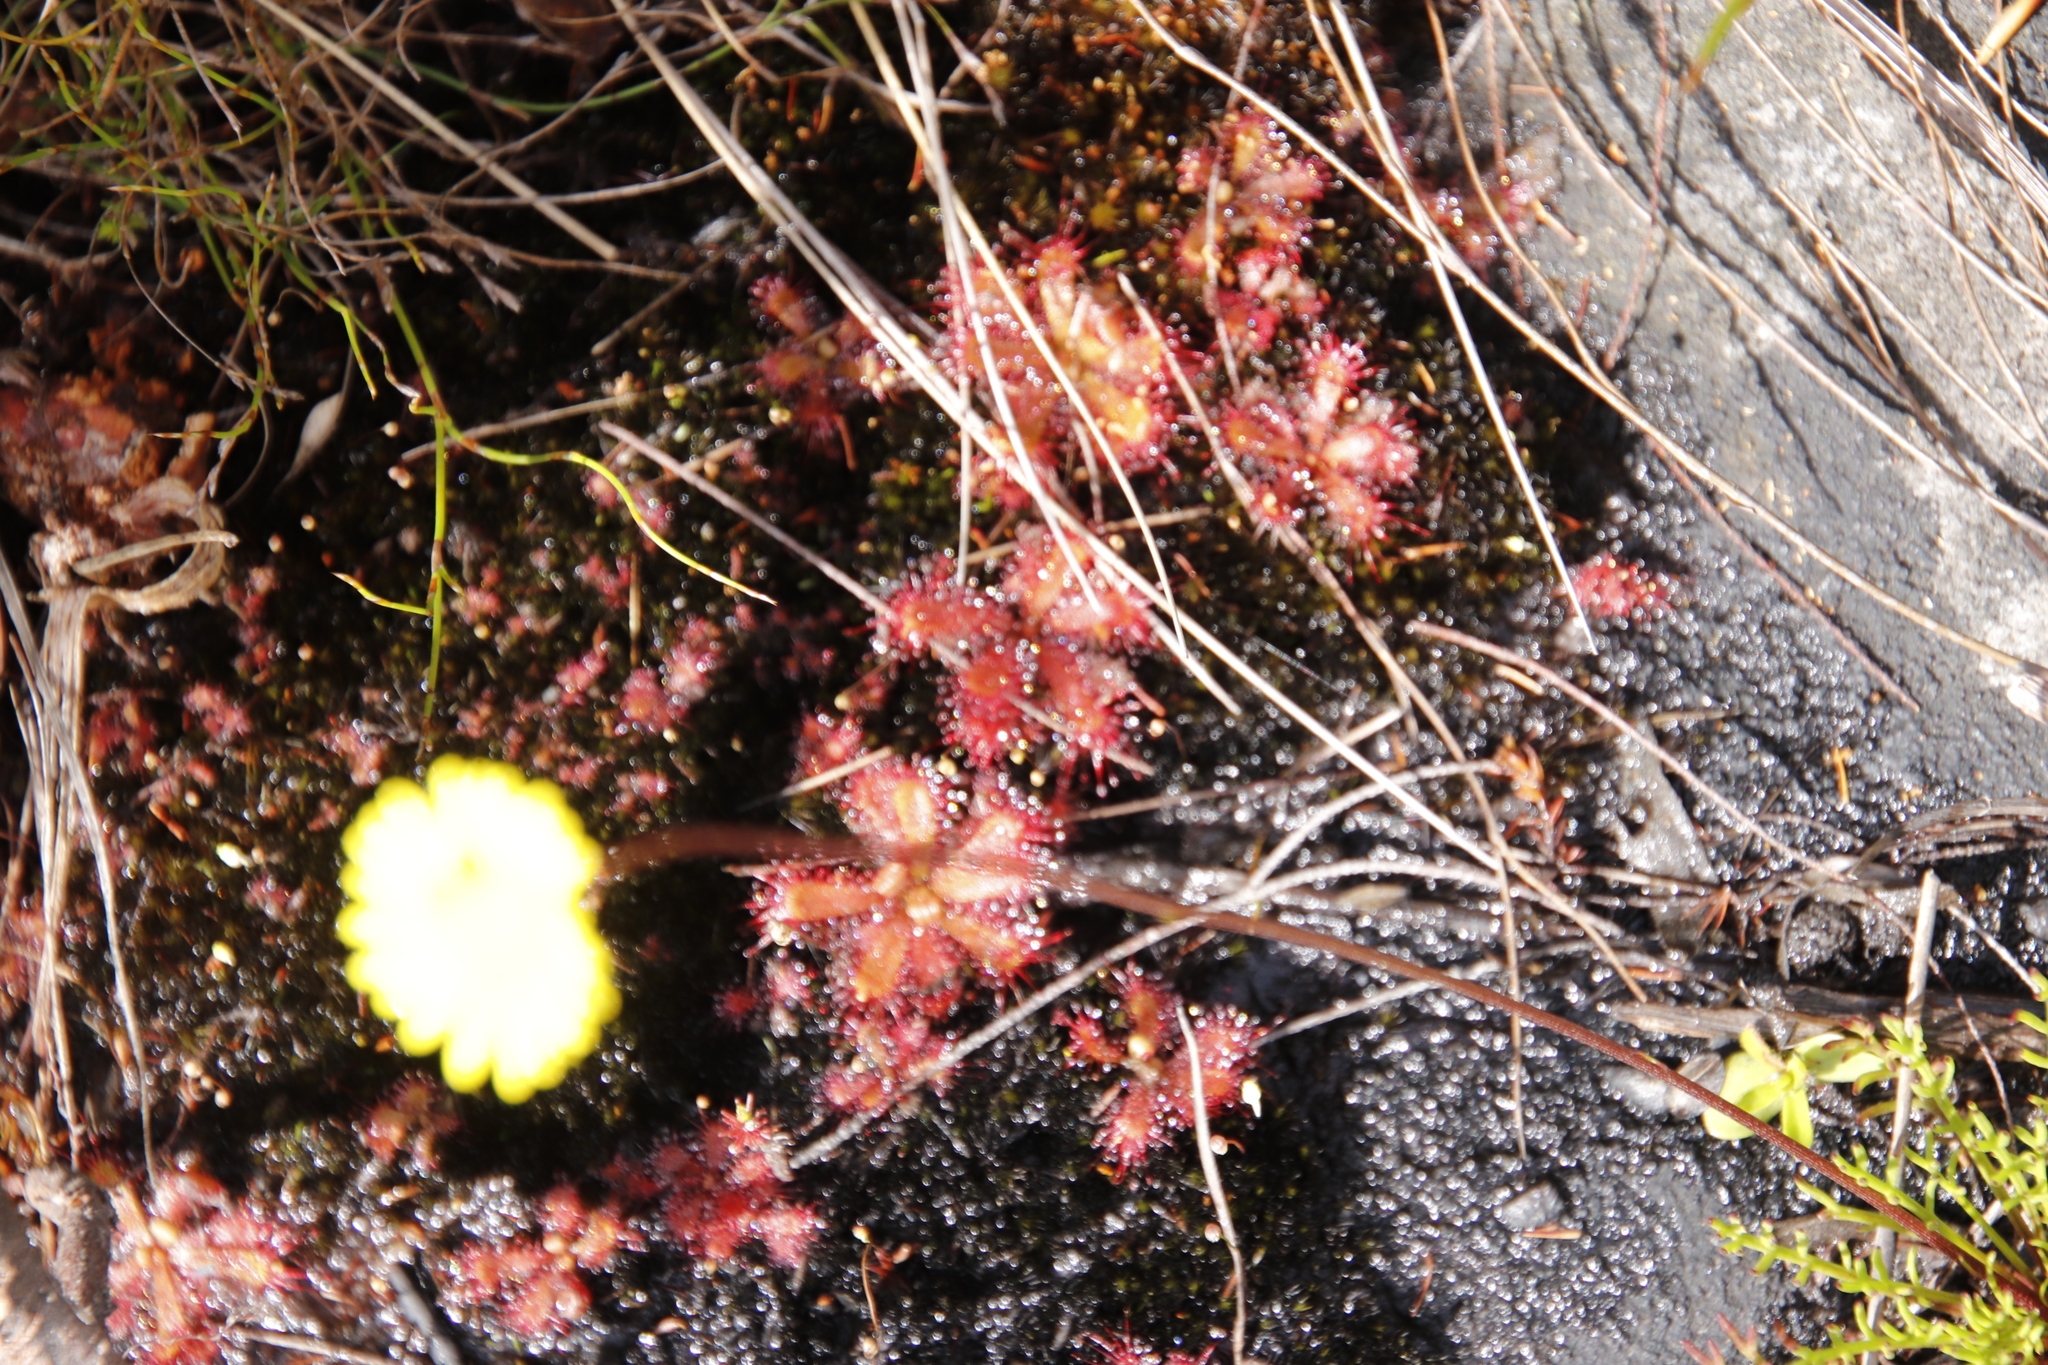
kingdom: Plantae
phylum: Tracheophyta
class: Magnoliopsida
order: Caryophyllales
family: Droseraceae
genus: Drosera
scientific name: Drosera trinervia
